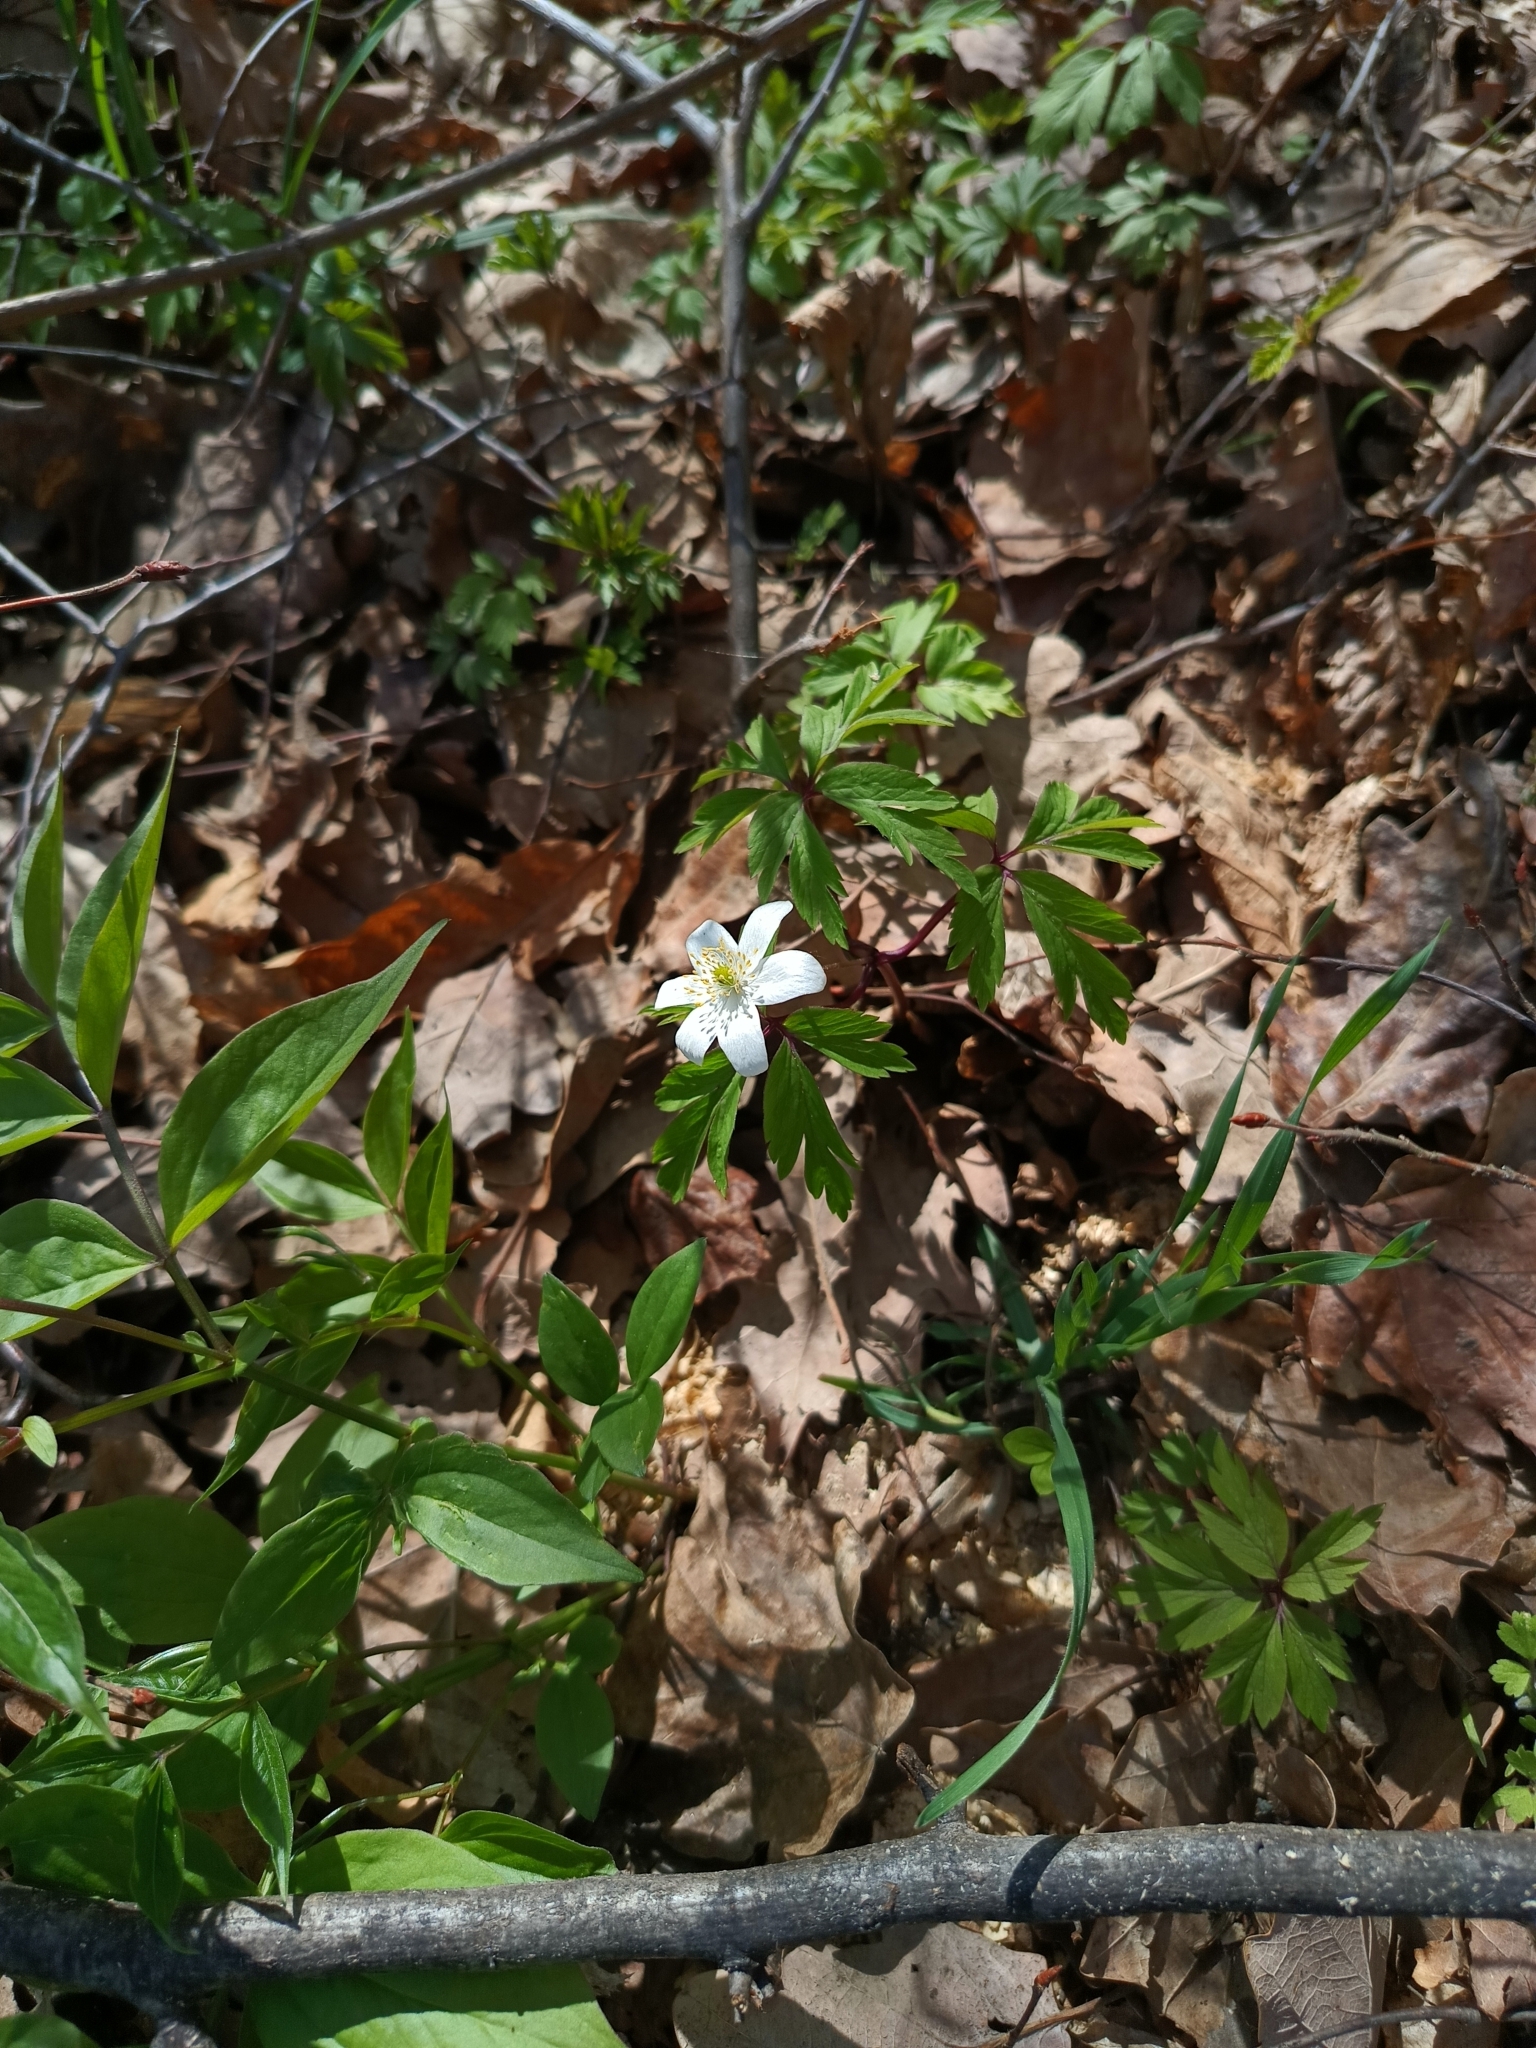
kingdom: Plantae
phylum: Tracheophyta
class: Magnoliopsida
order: Ranunculales
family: Ranunculaceae
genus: Anemone
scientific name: Anemone nemorosa
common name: Wood anemone
